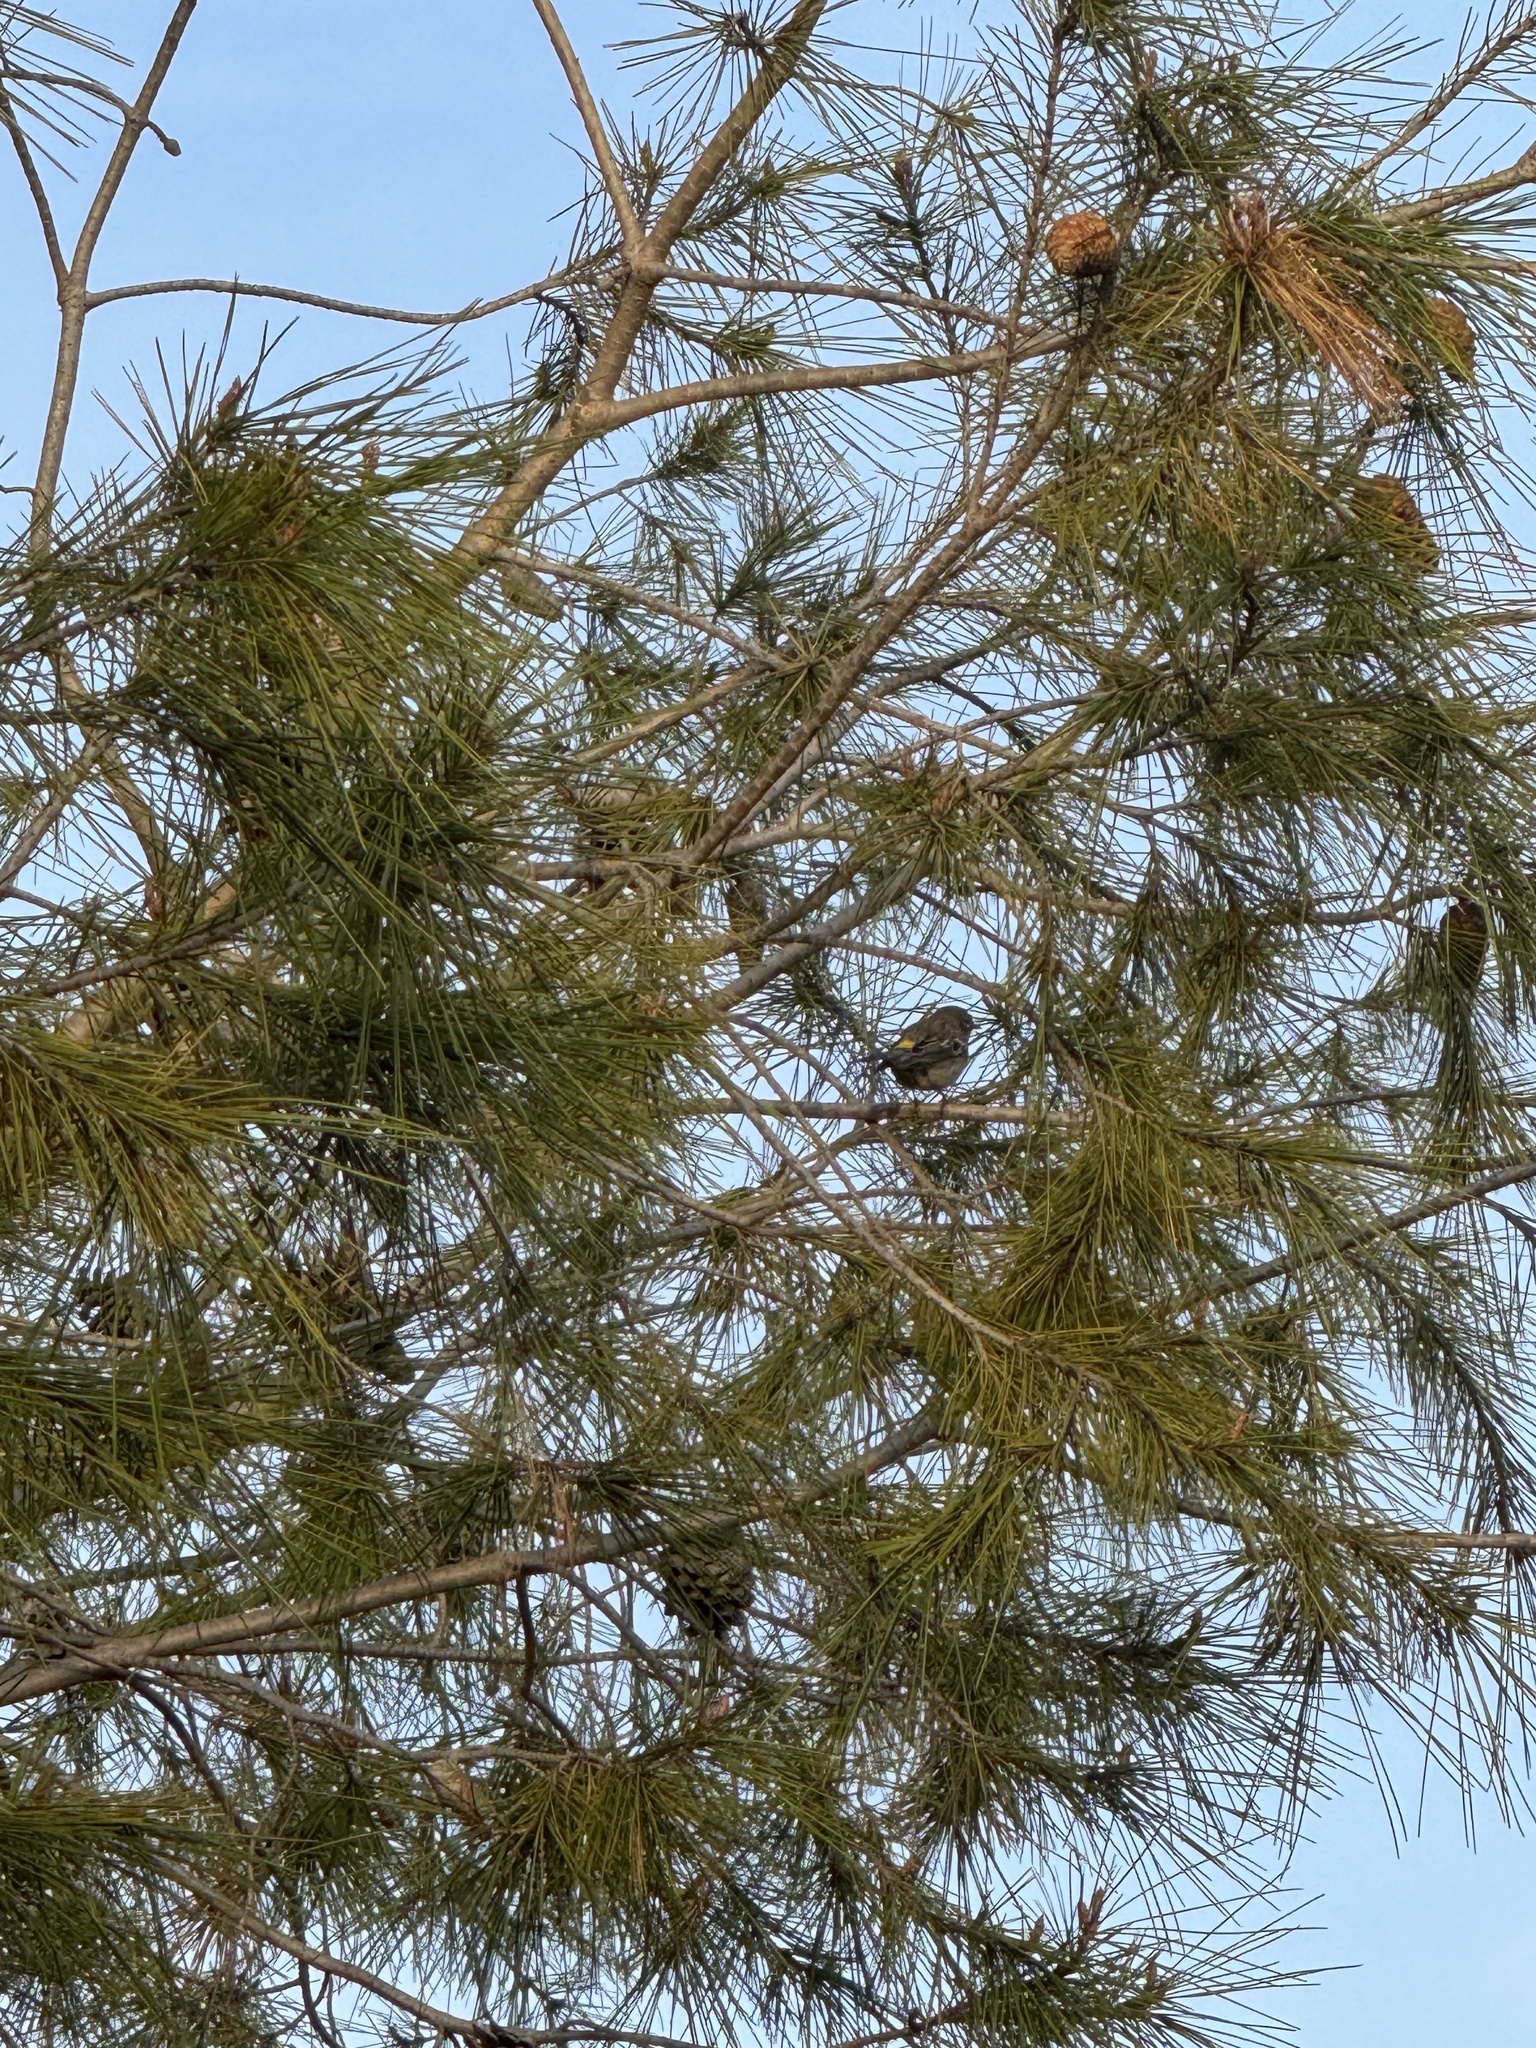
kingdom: Animalia
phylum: Chordata
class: Aves
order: Passeriformes
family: Parulidae
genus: Setophaga
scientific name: Setophaga coronata
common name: Myrtle warbler
